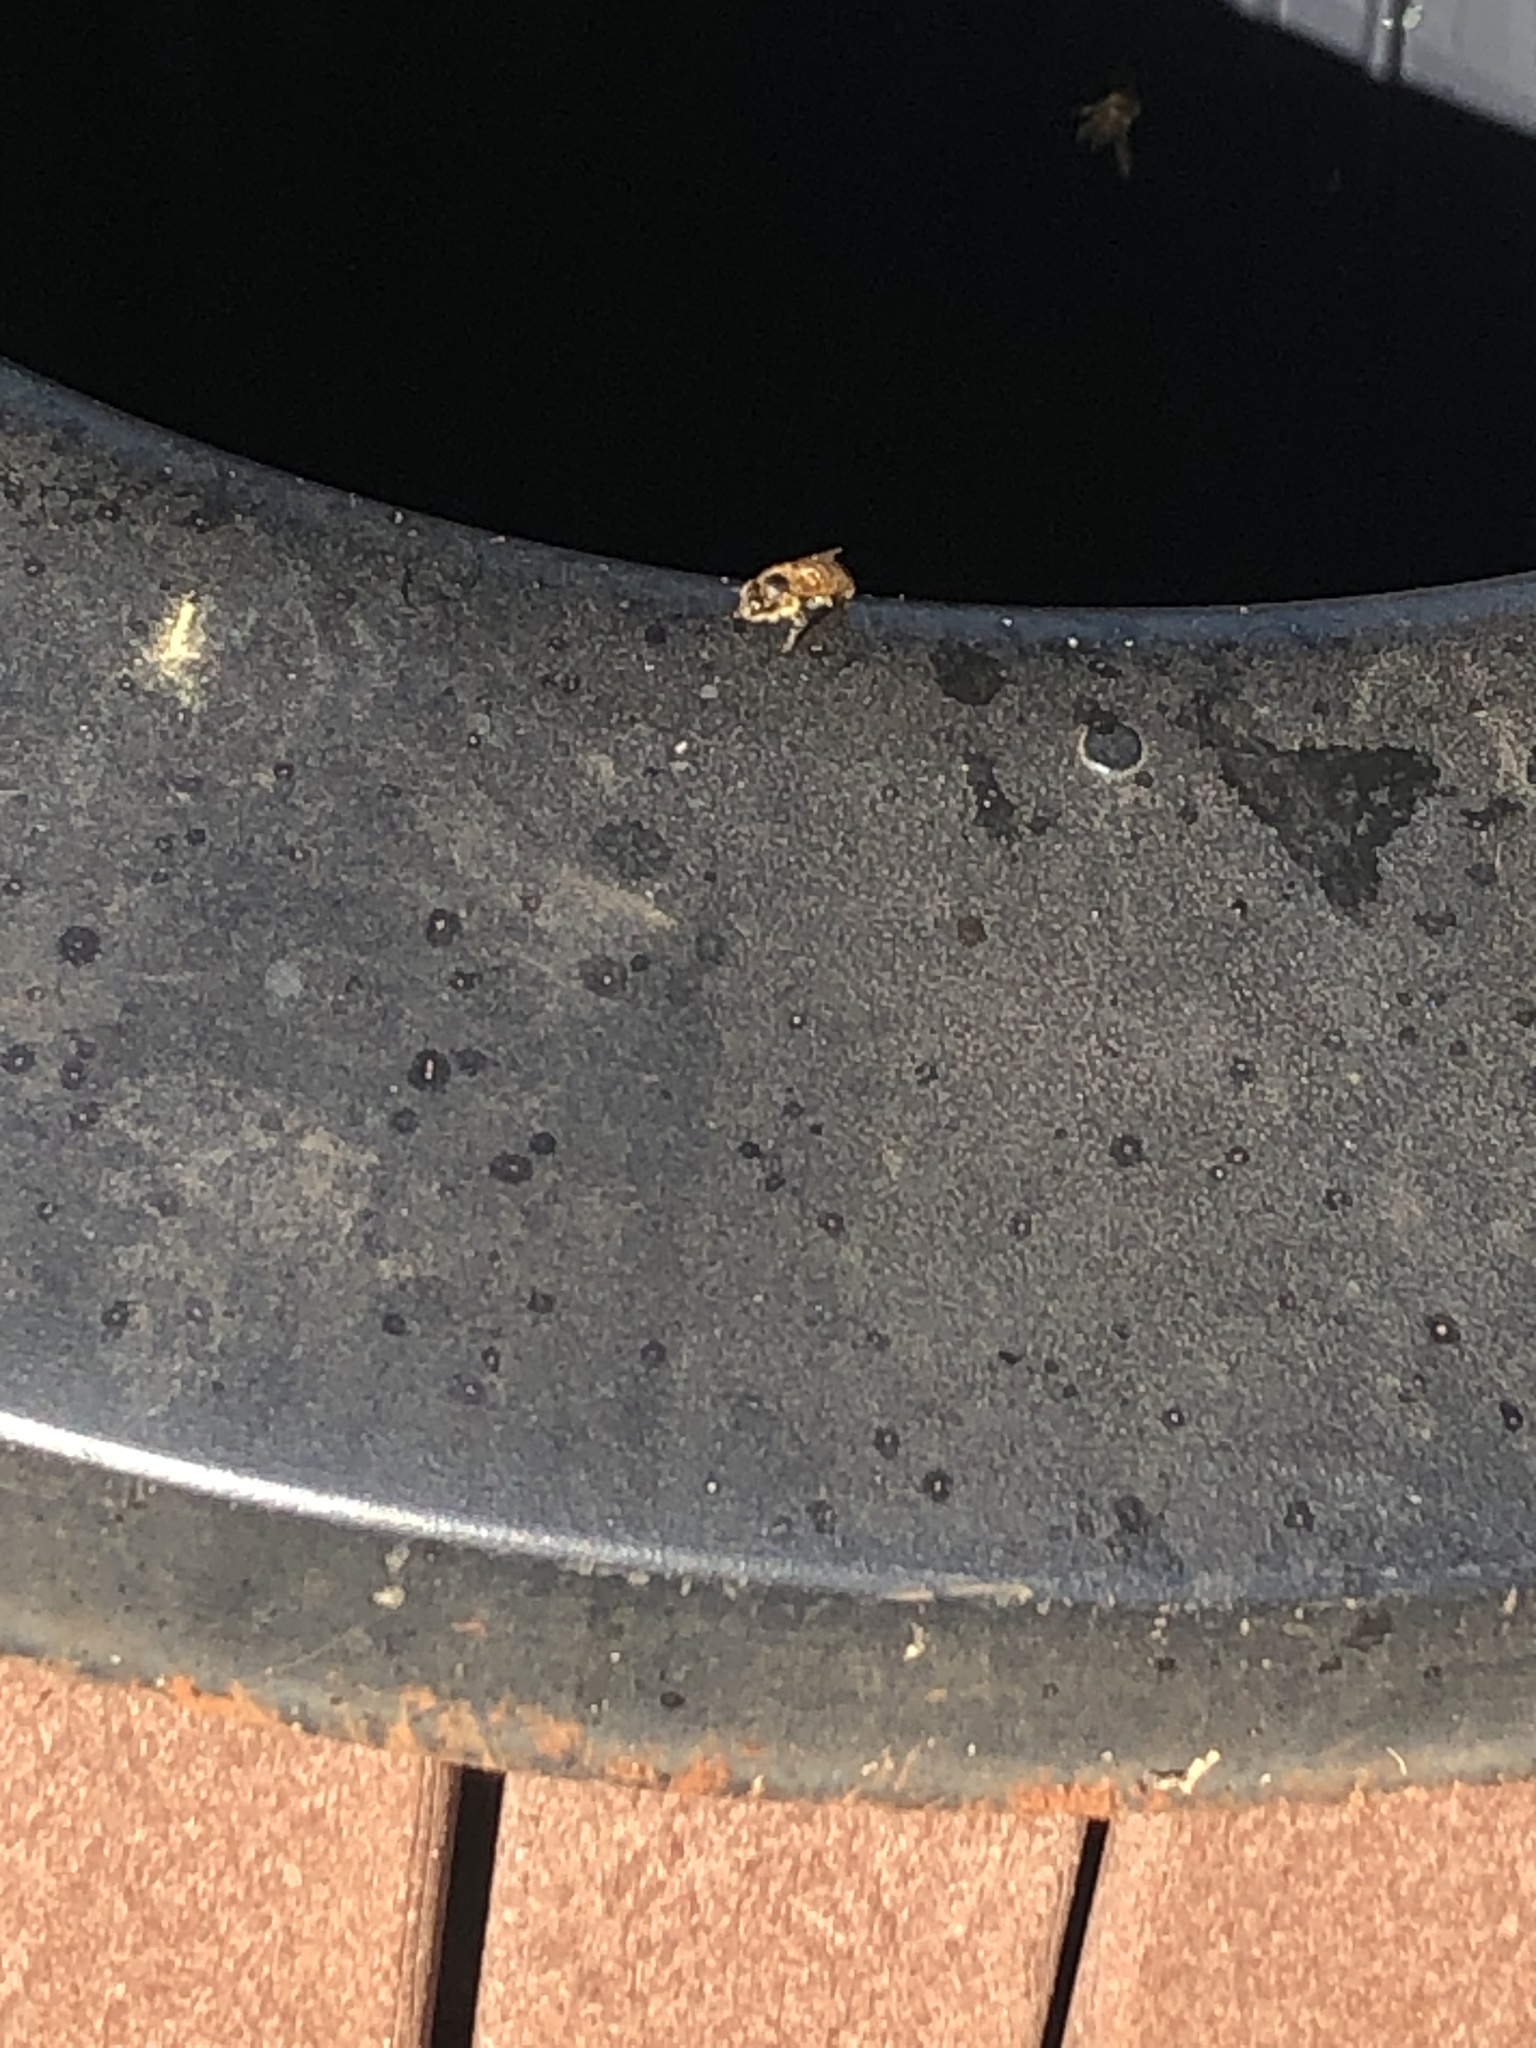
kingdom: Animalia
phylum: Arthropoda
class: Insecta
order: Hymenoptera
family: Apidae
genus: Apis
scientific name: Apis mellifera
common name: Honey bee
